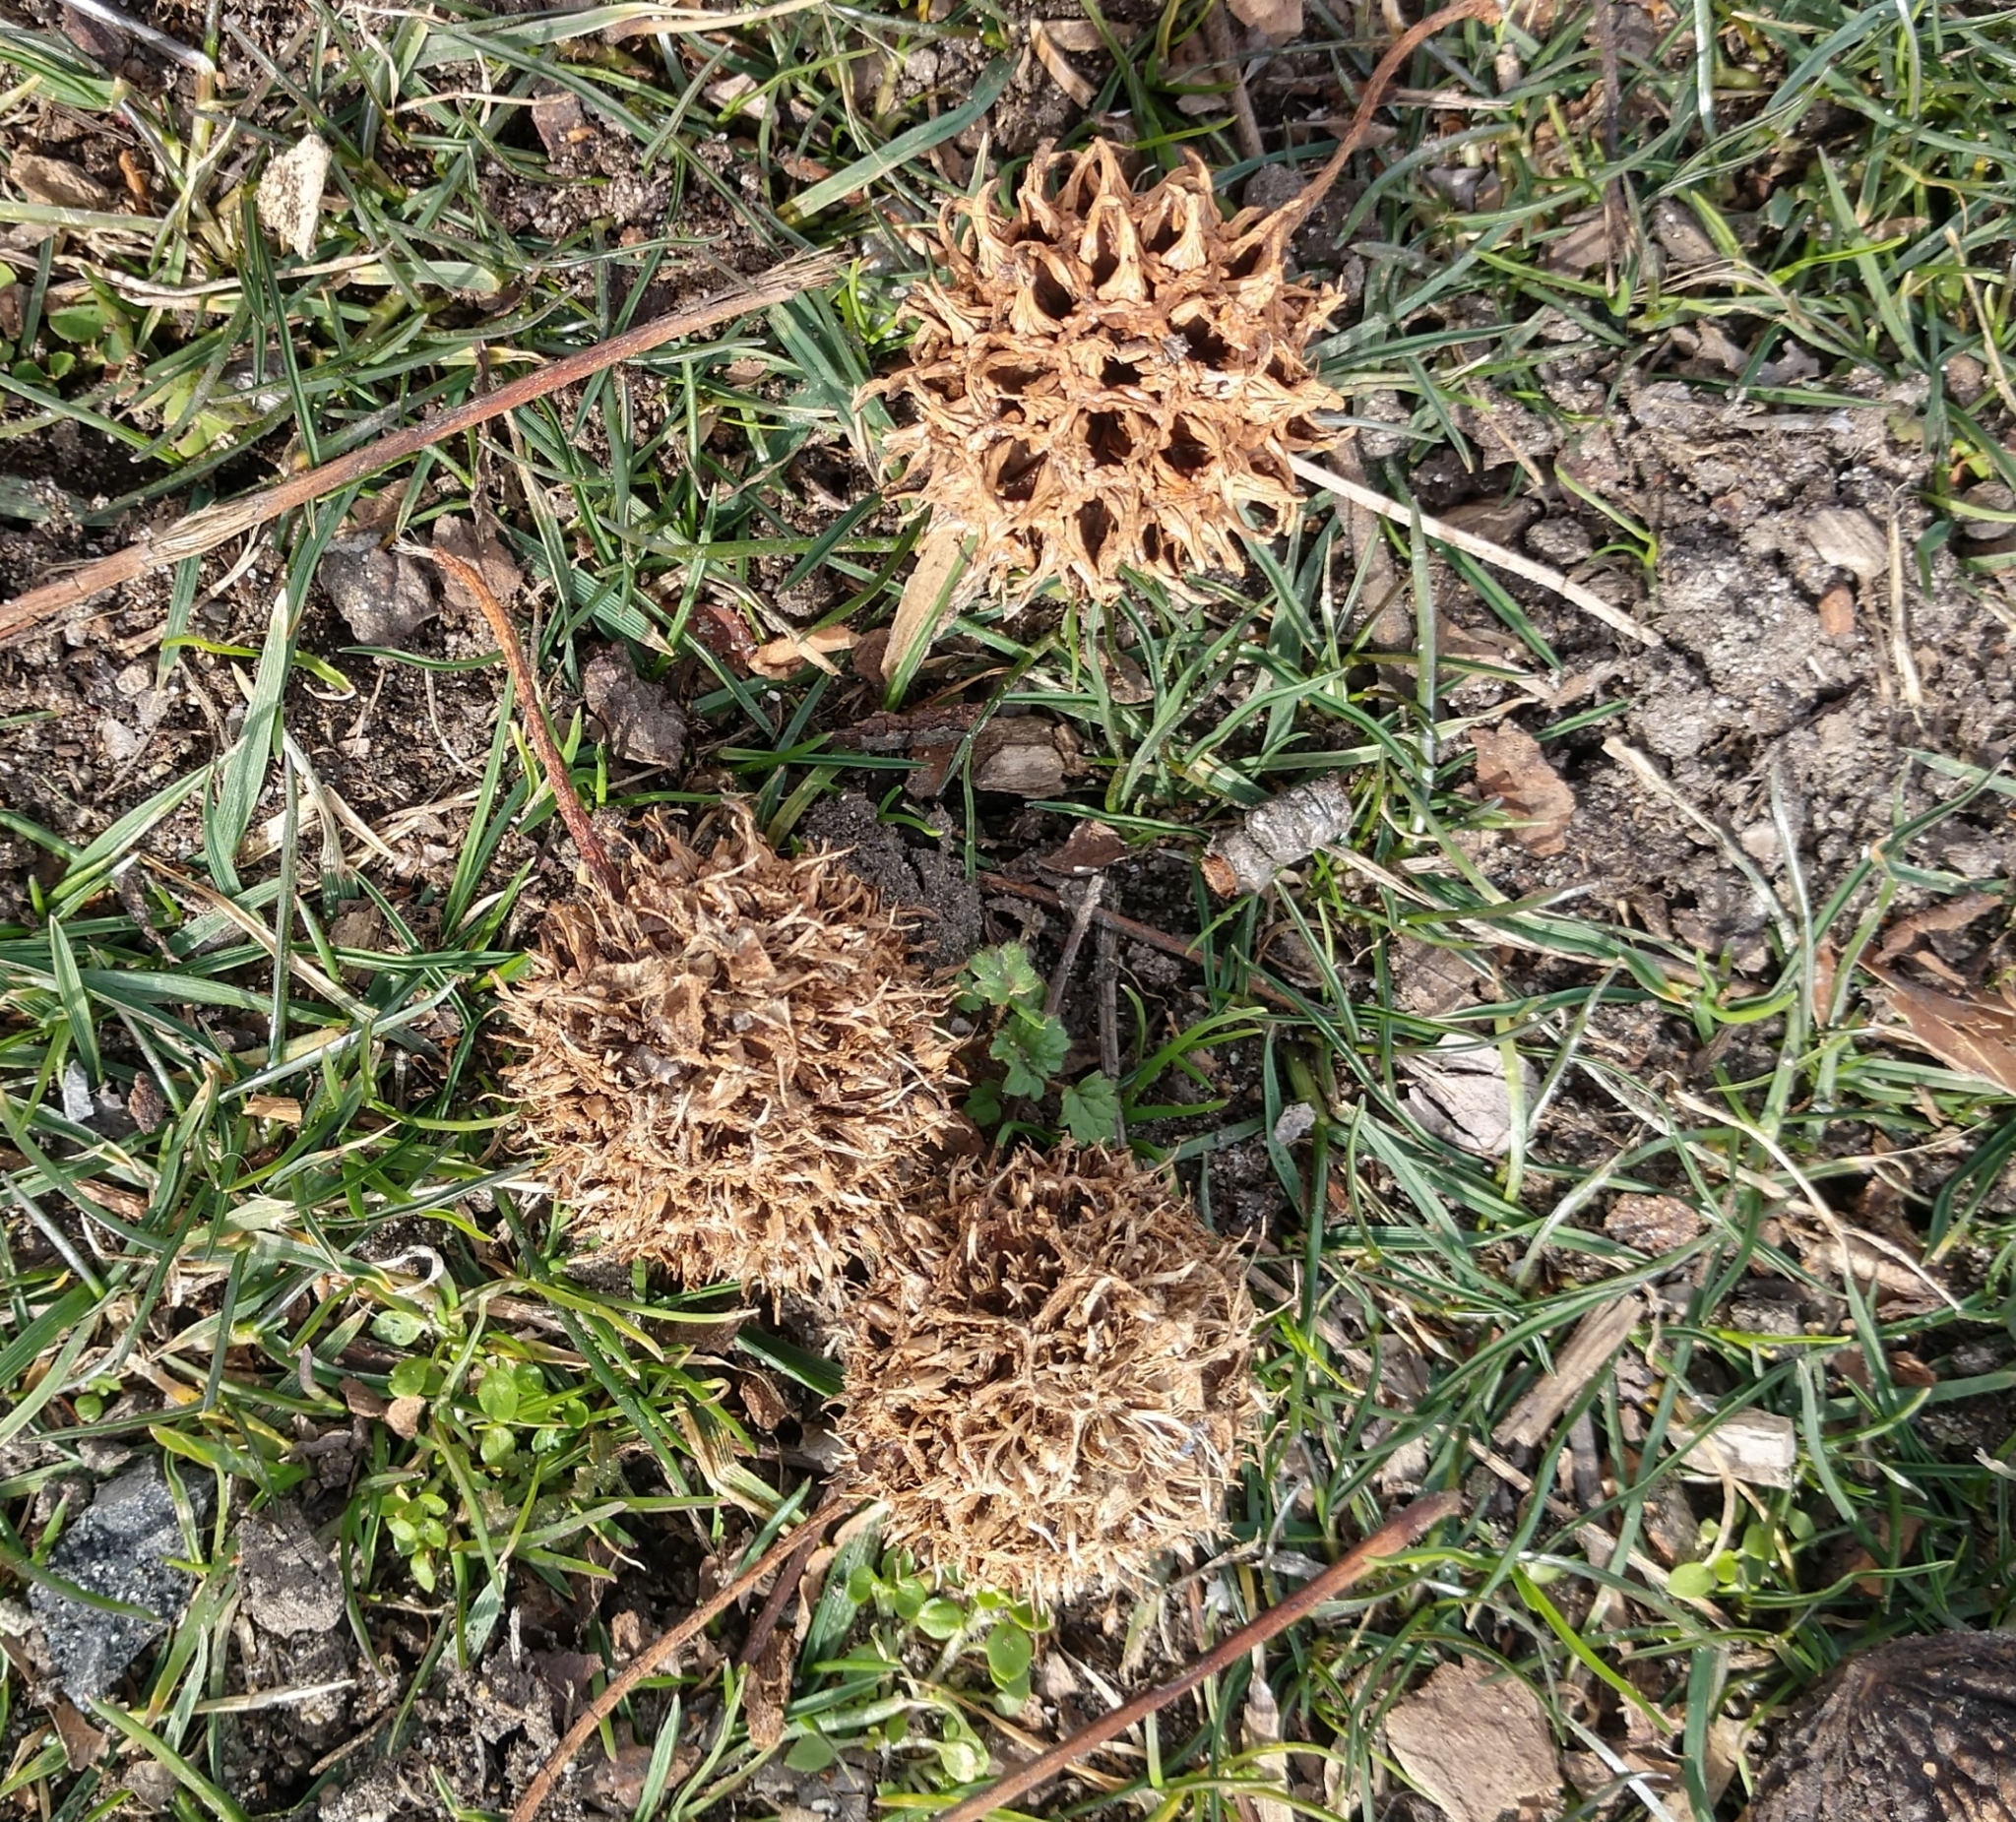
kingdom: Plantae
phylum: Tracheophyta
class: Magnoliopsida
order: Saxifragales
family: Altingiaceae
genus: Liquidambar
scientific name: Liquidambar styraciflua
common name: Sweet gum
